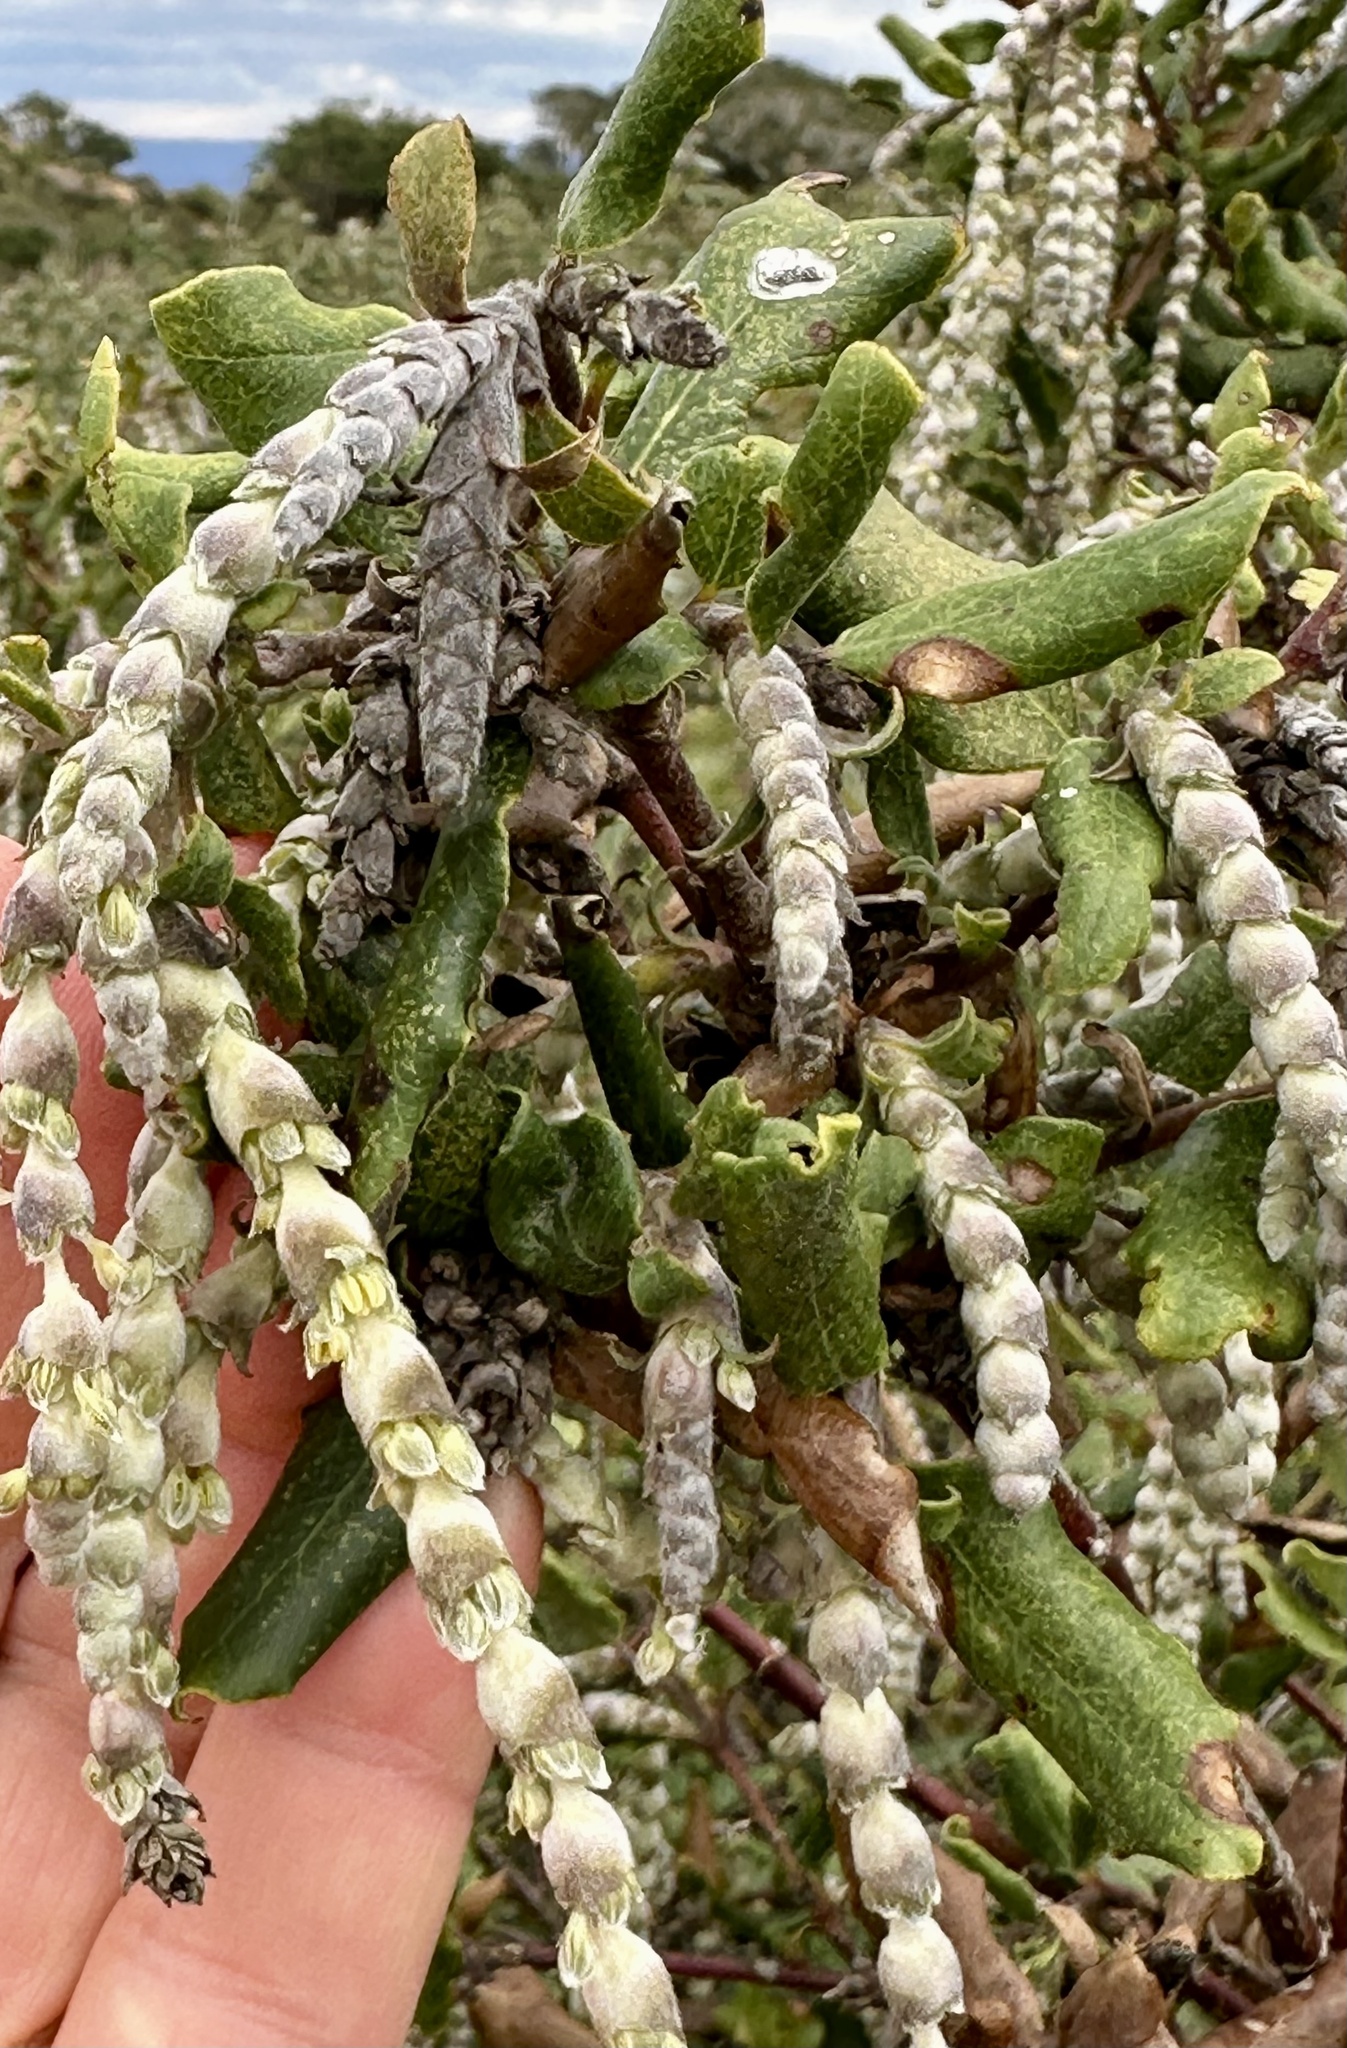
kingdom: Plantae
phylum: Tracheophyta
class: Magnoliopsida
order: Garryales
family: Garryaceae
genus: Garrya
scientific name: Garrya elliptica
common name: Silk-tassel
